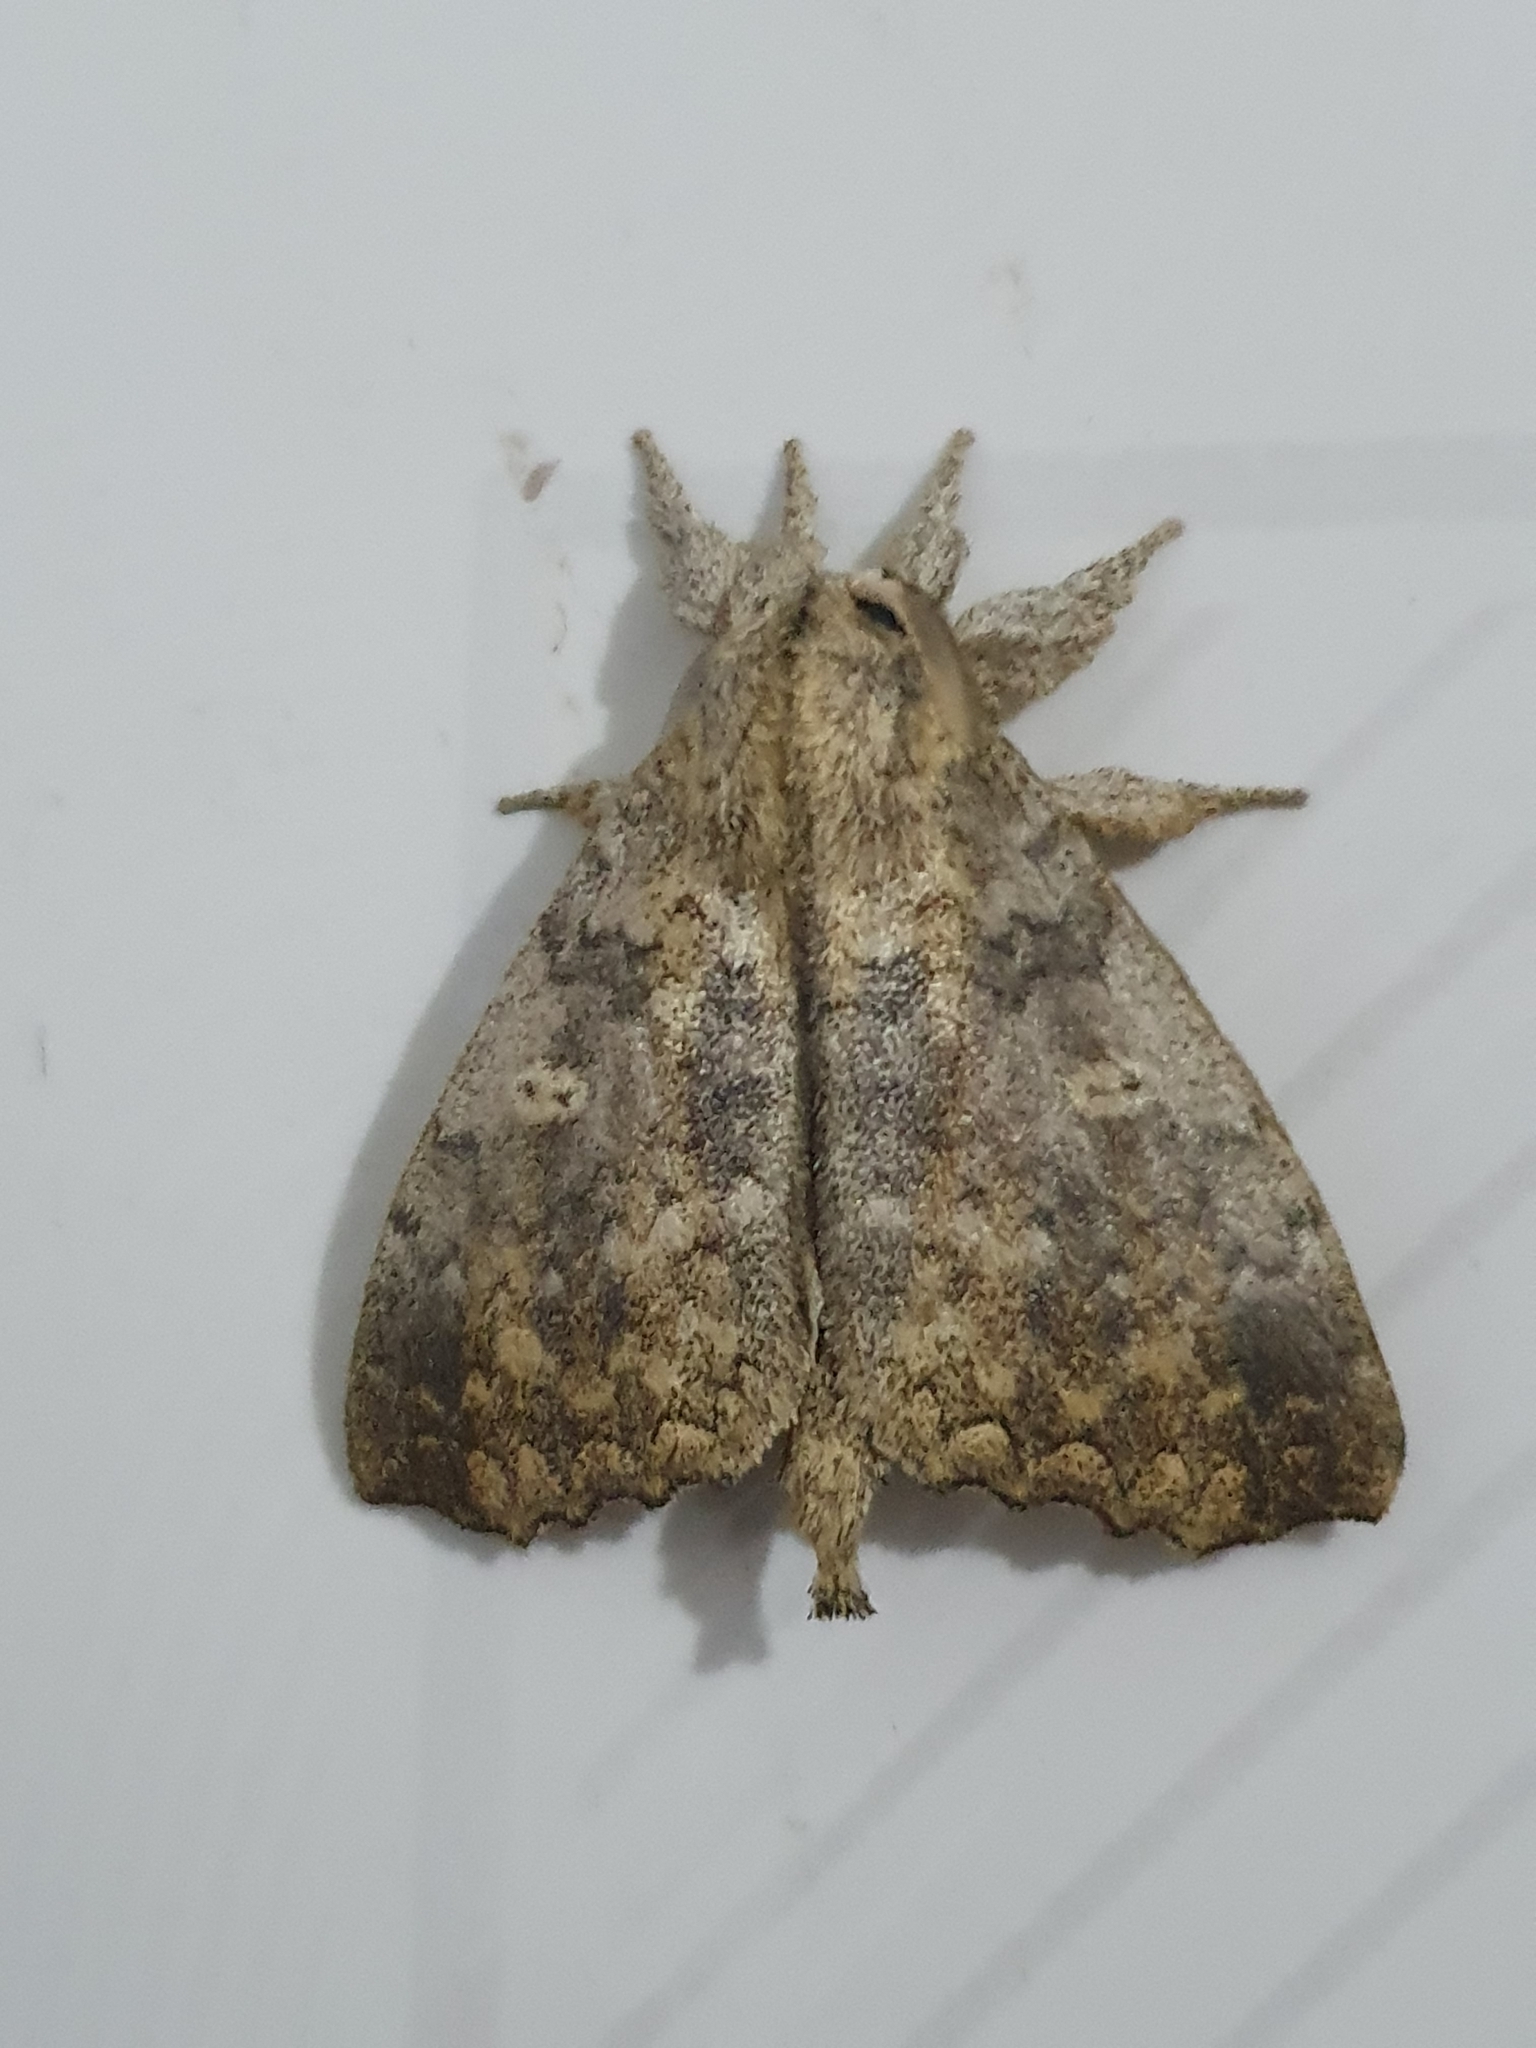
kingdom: Animalia
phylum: Arthropoda
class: Insecta
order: Lepidoptera
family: Apatelodidae
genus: Colabata
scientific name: Colabata
